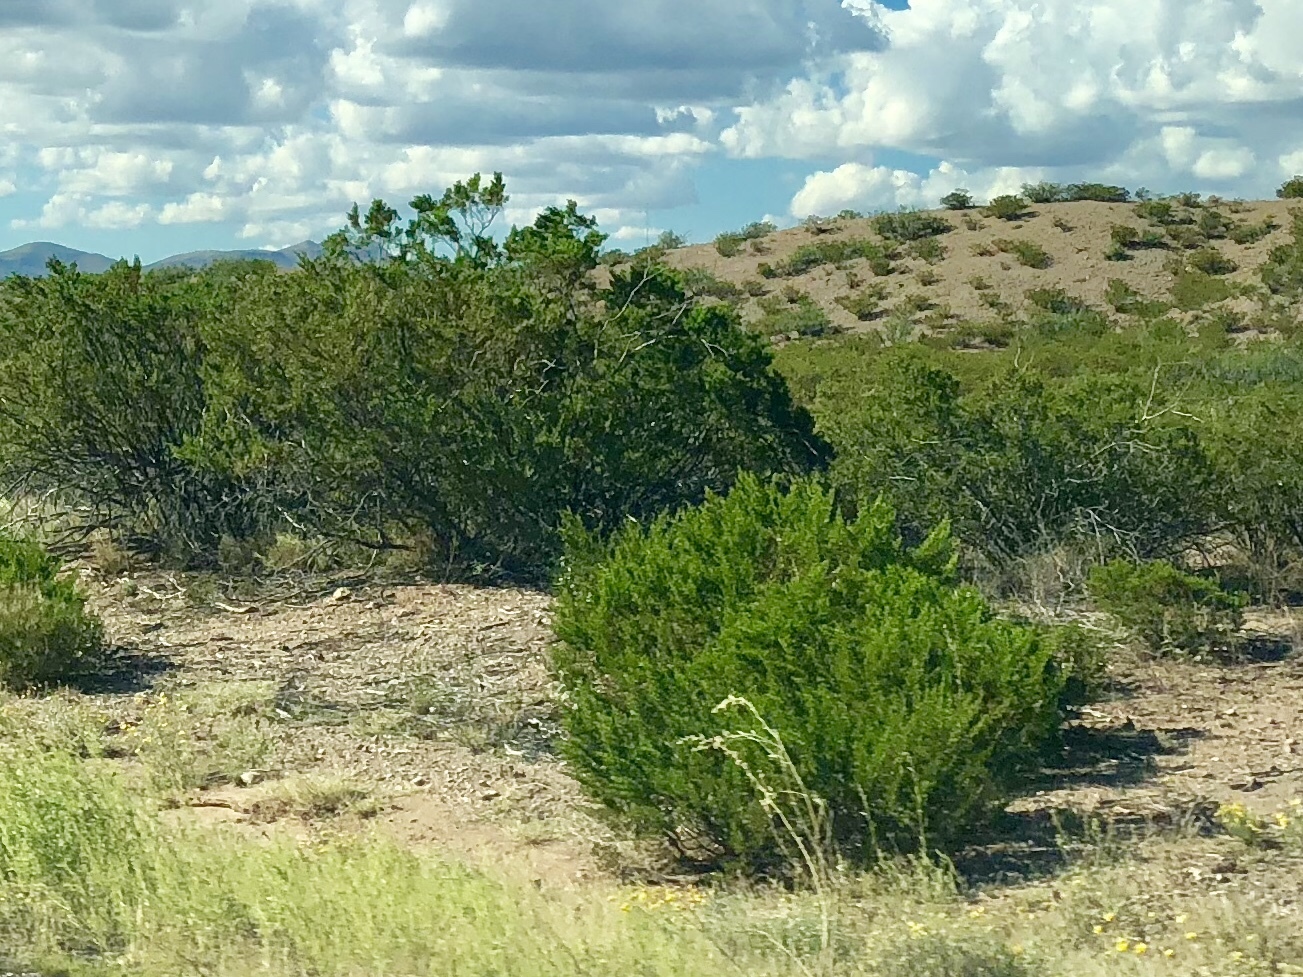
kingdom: Plantae
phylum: Tracheophyta
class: Magnoliopsida
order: Zygophyllales
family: Zygophyllaceae
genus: Larrea
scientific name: Larrea tridentata
